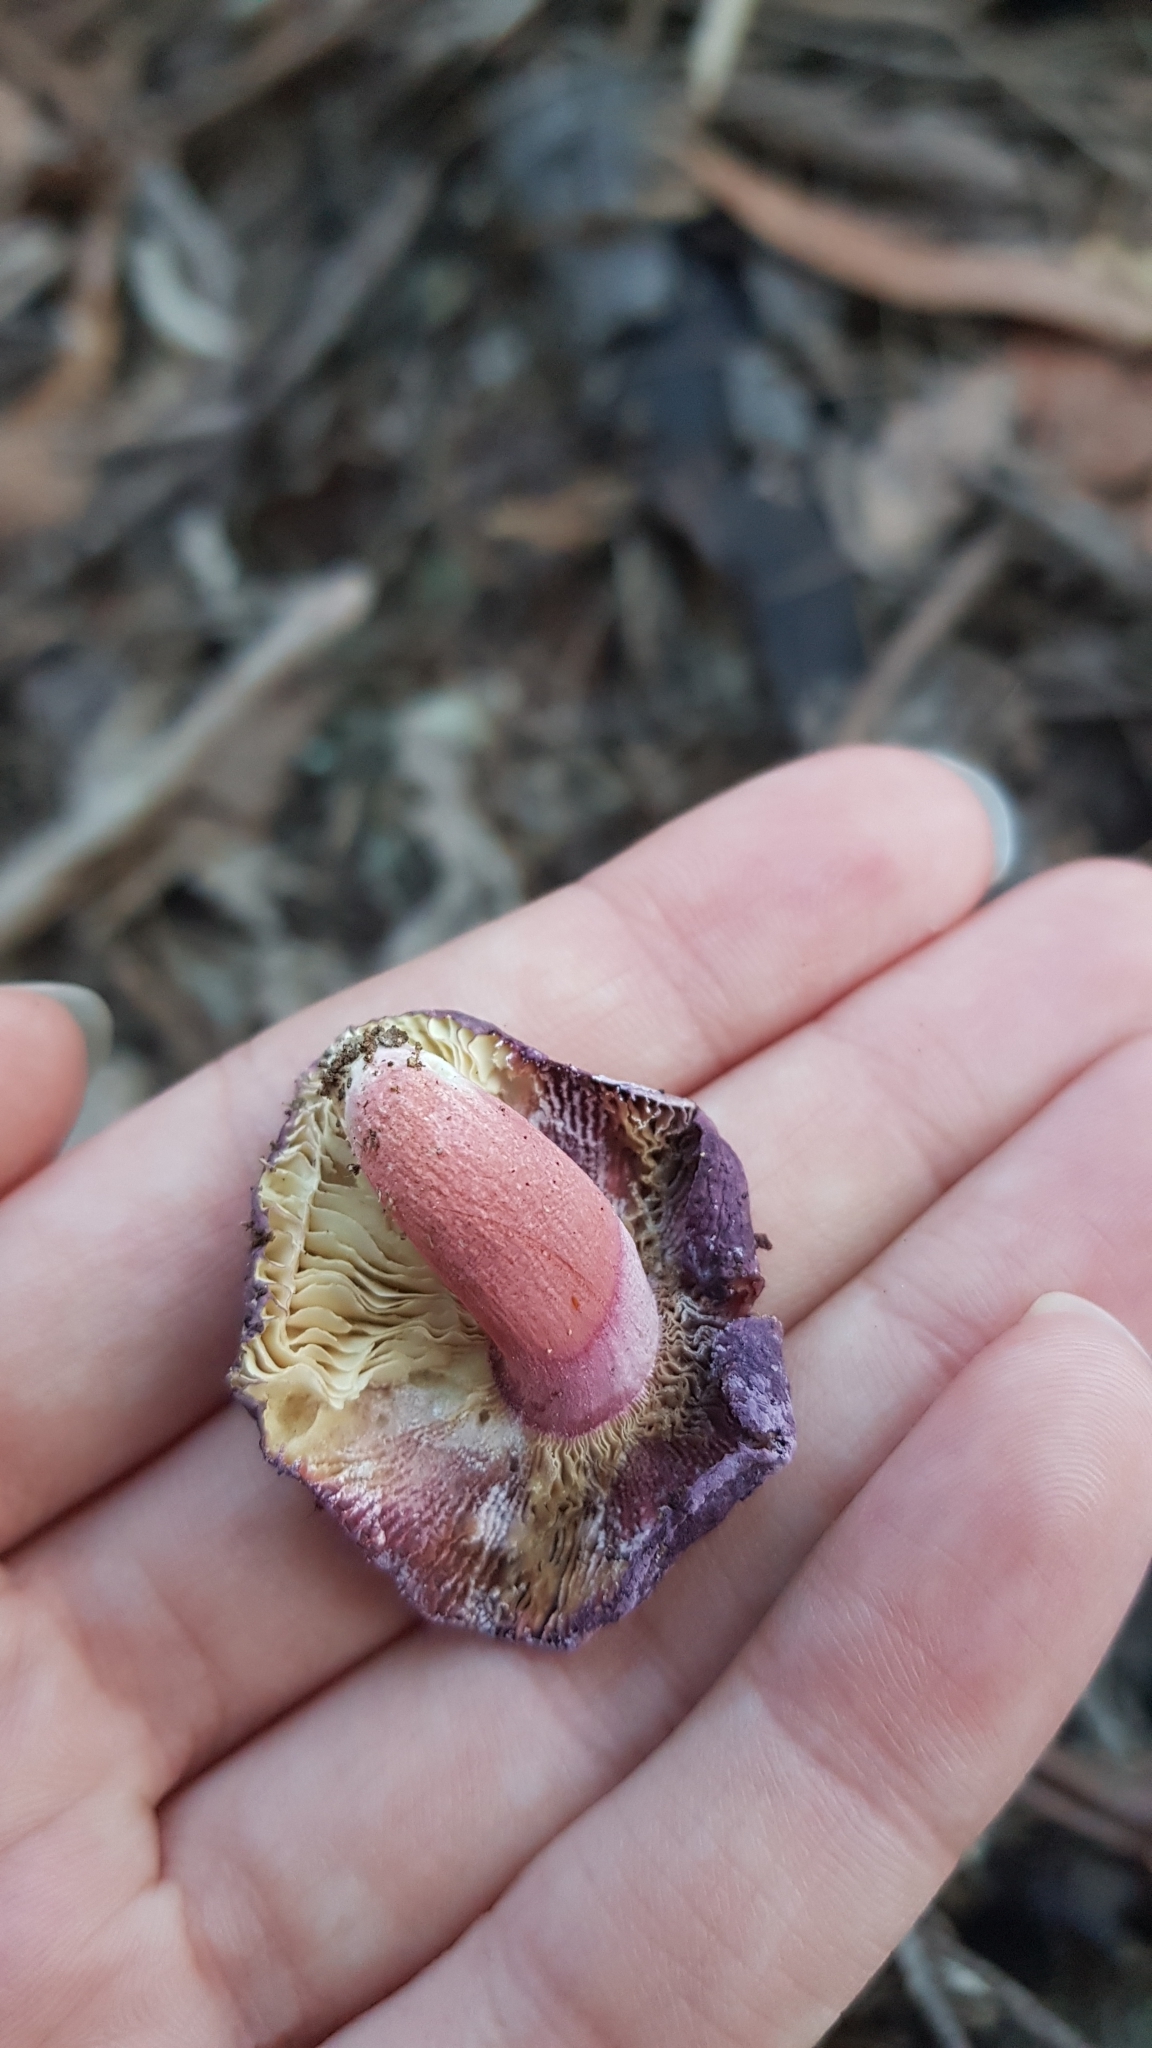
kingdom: Fungi
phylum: Basidiomycota
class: Agaricomycetes
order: Russulales
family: Russulaceae
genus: Russula
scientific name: Russula lenkunya
